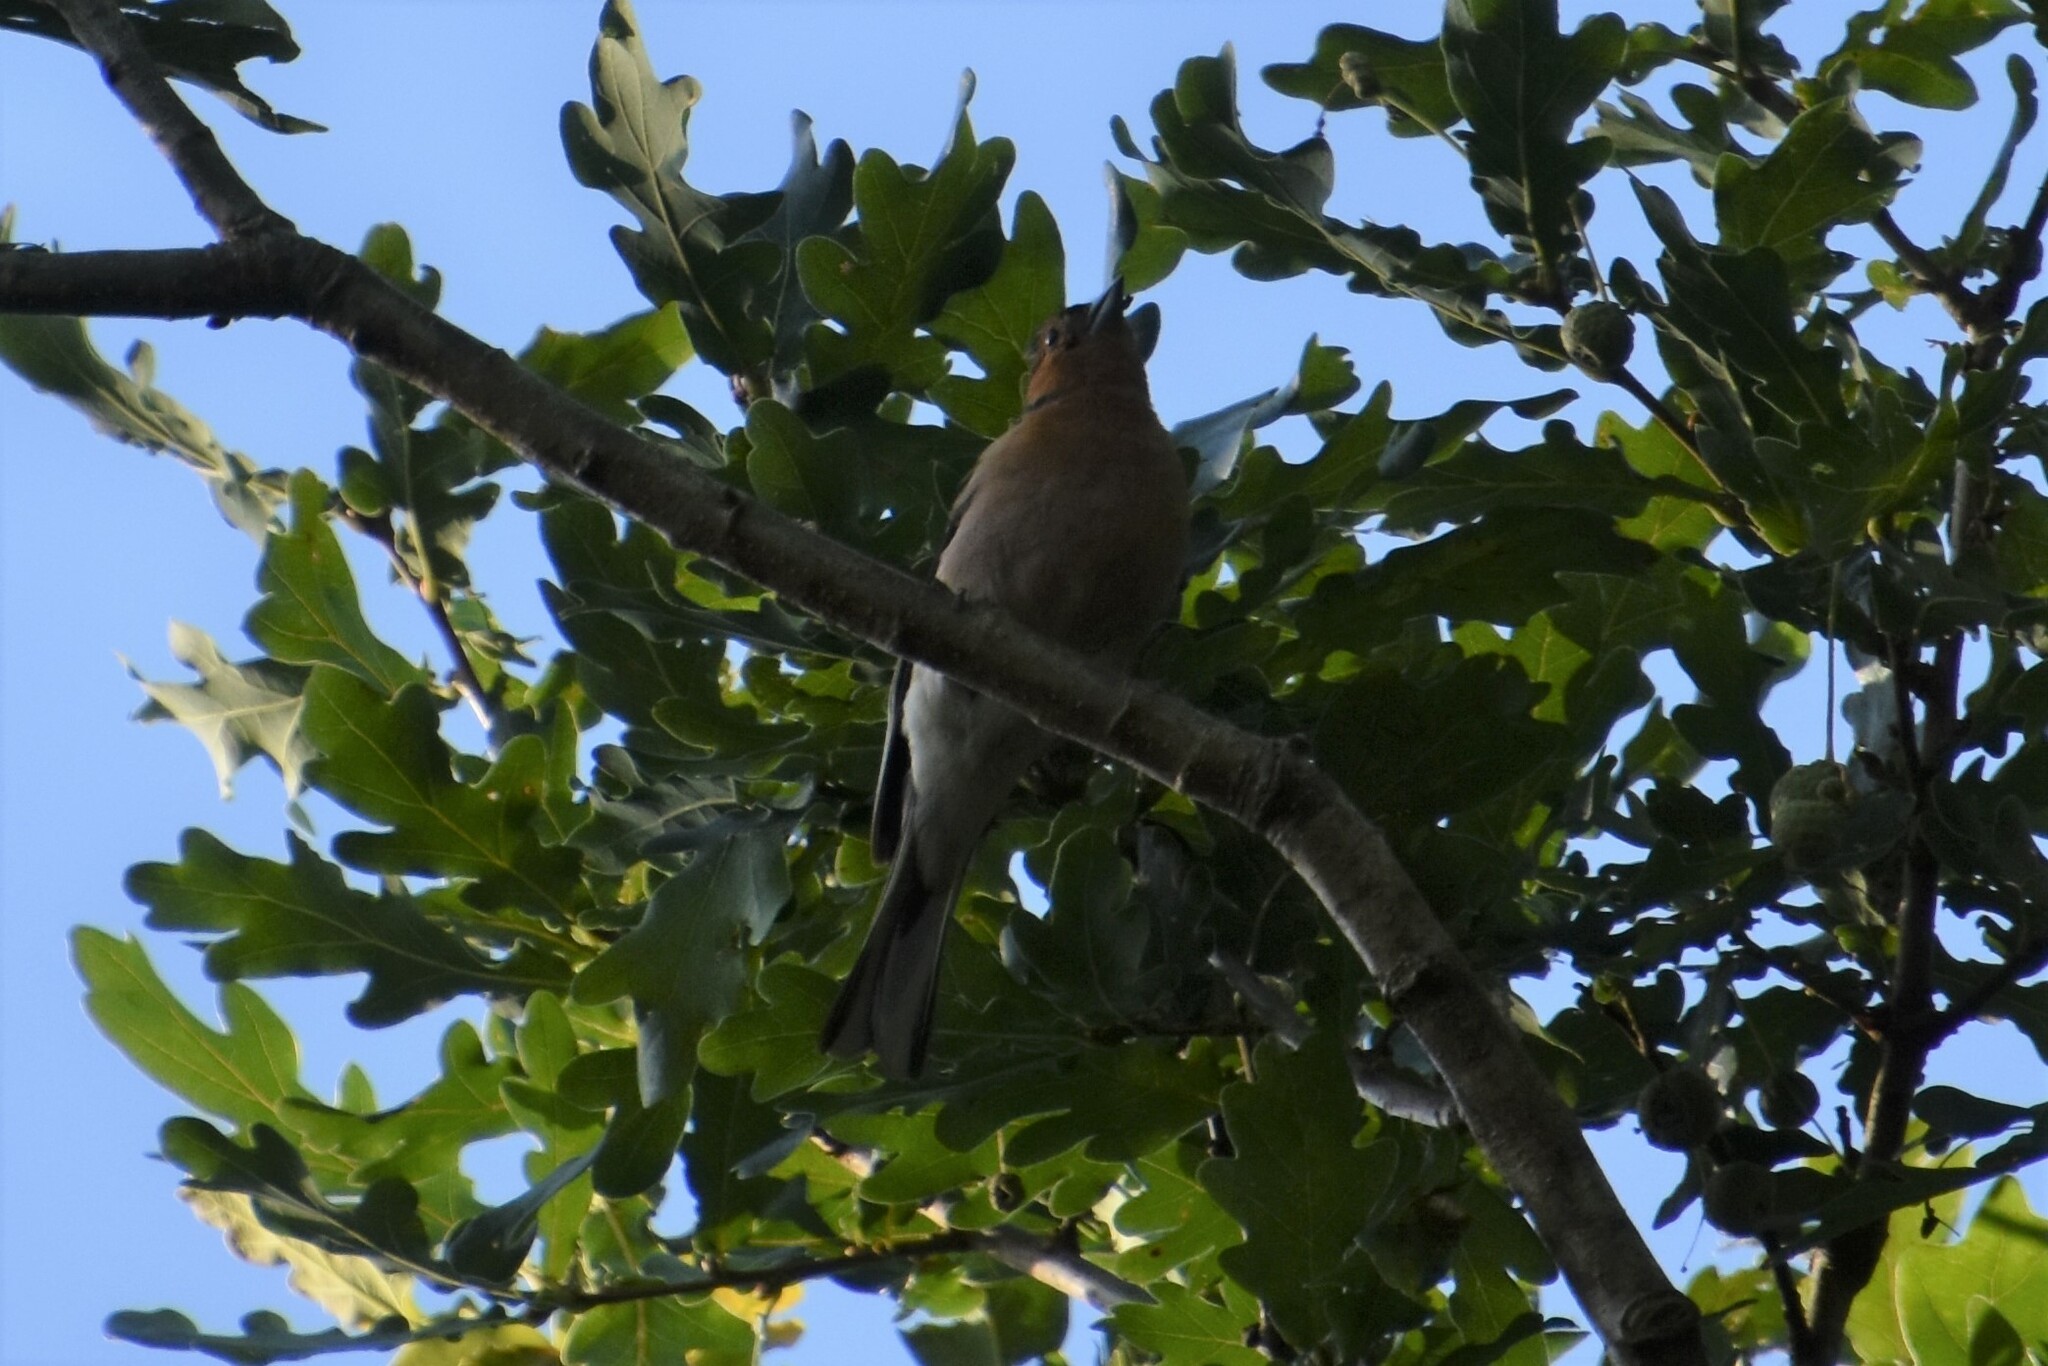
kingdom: Animalia
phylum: Chordata
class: Aves
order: Passeriformes
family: Fringillidae
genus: Fringilla
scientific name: Fringilla coelebs
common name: Common chaffinch
